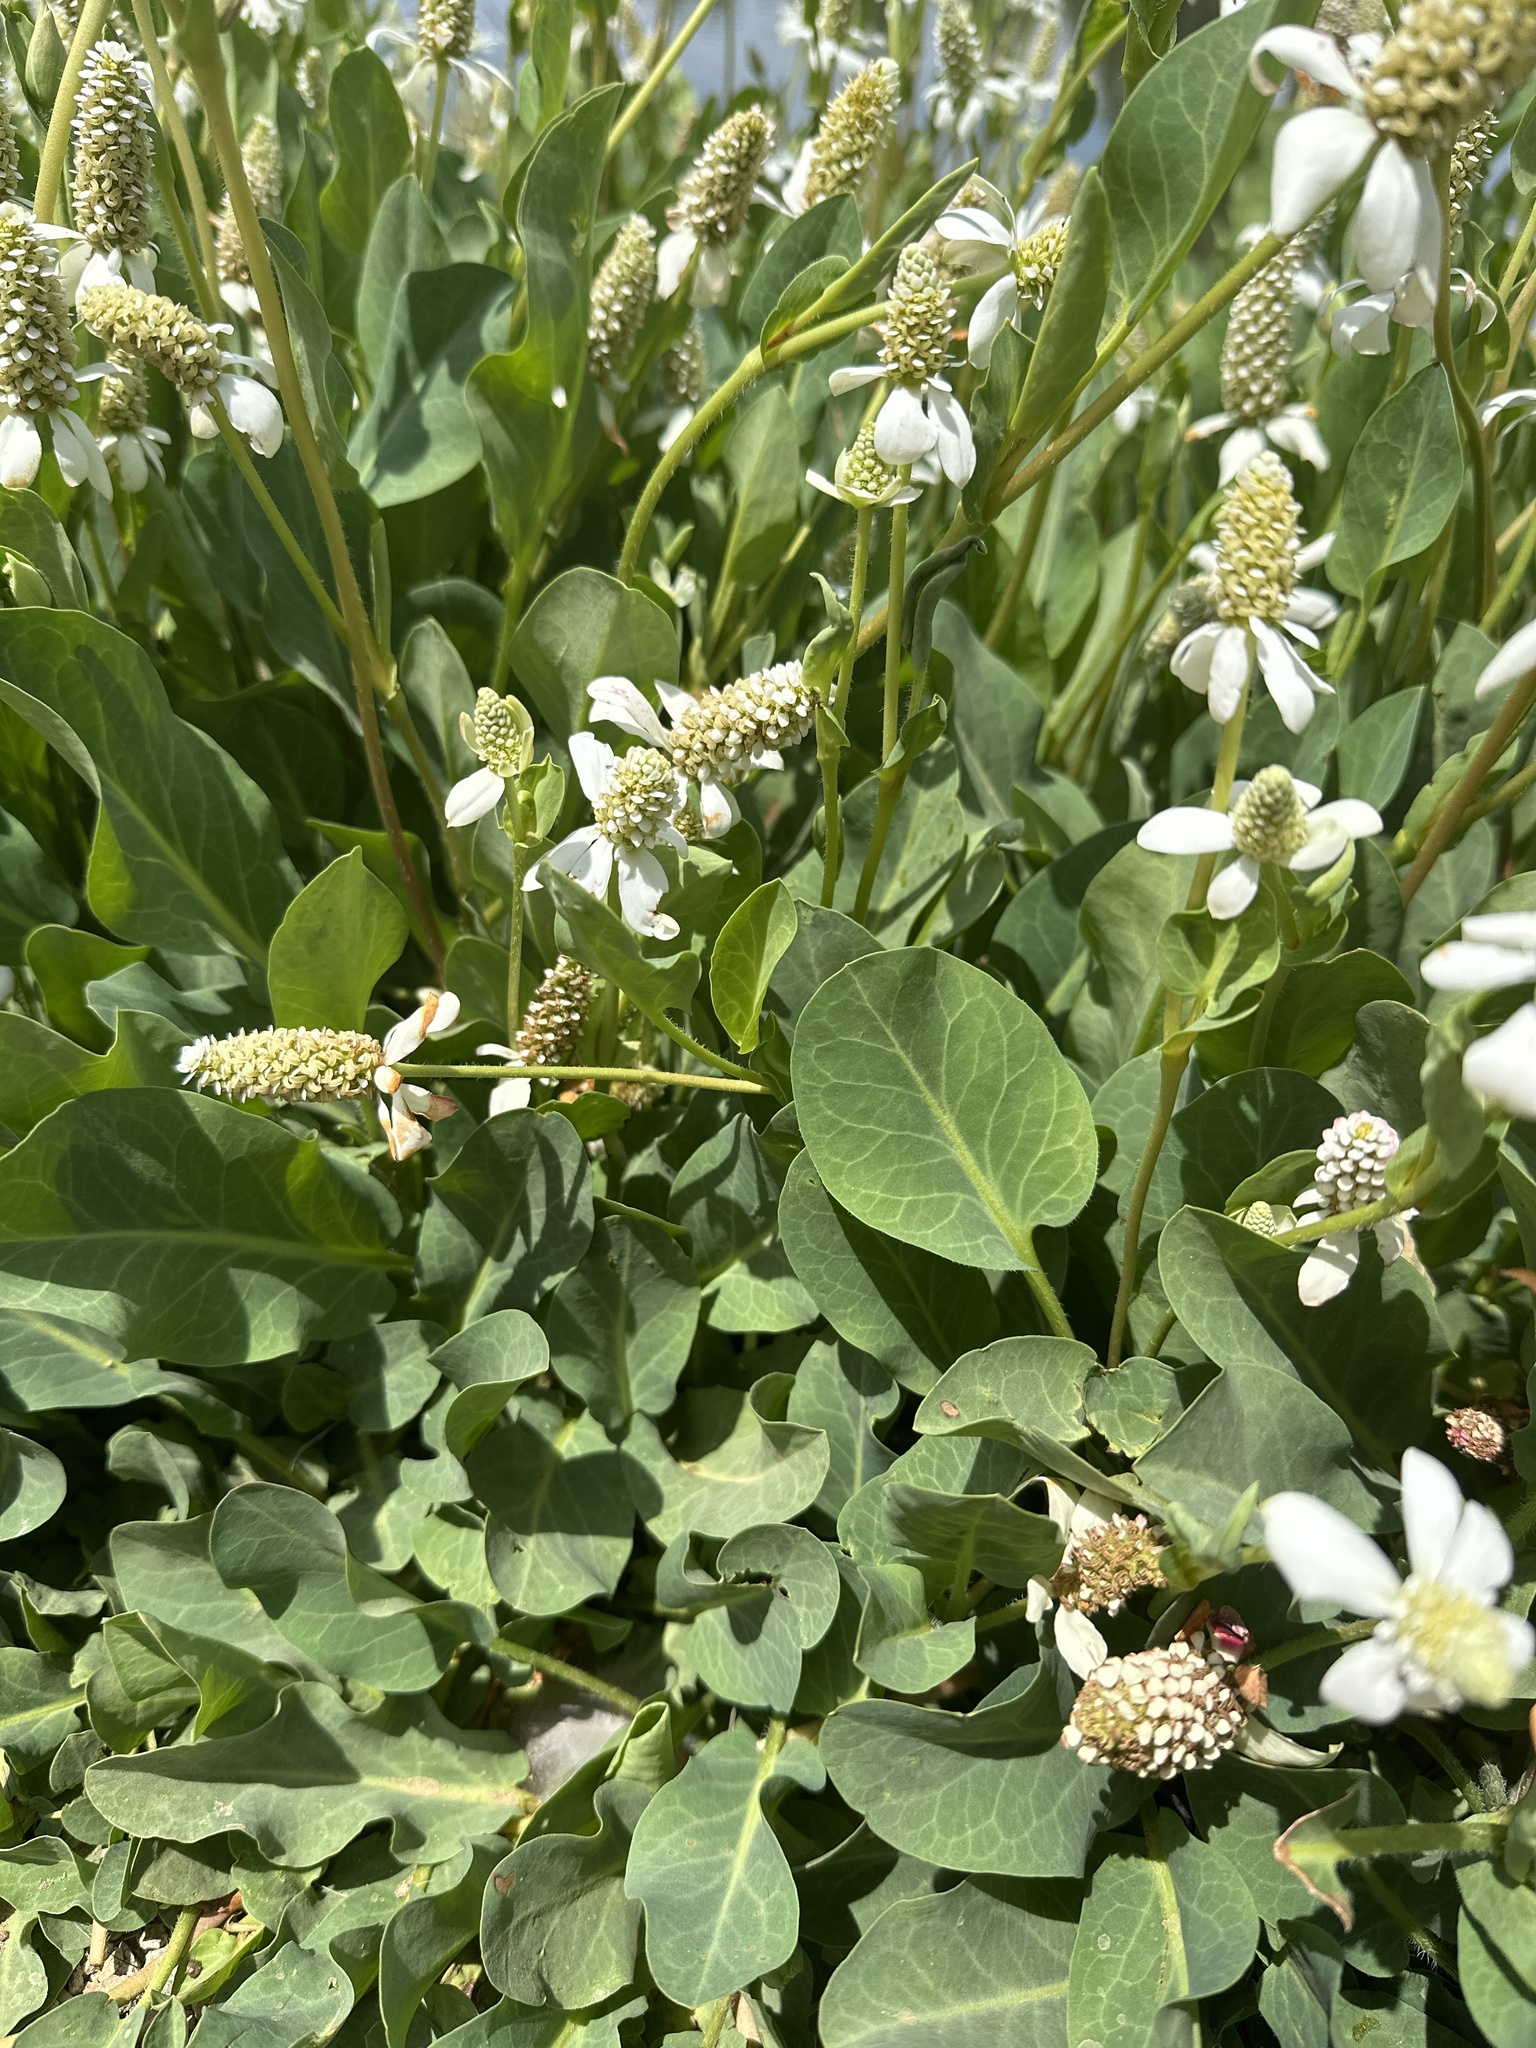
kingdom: Plantae
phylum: Tracheophyta
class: Magnoliopsida
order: Piperales
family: Saururaceae
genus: Anemopsis
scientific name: Anemopsis californica
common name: Apache-beads
